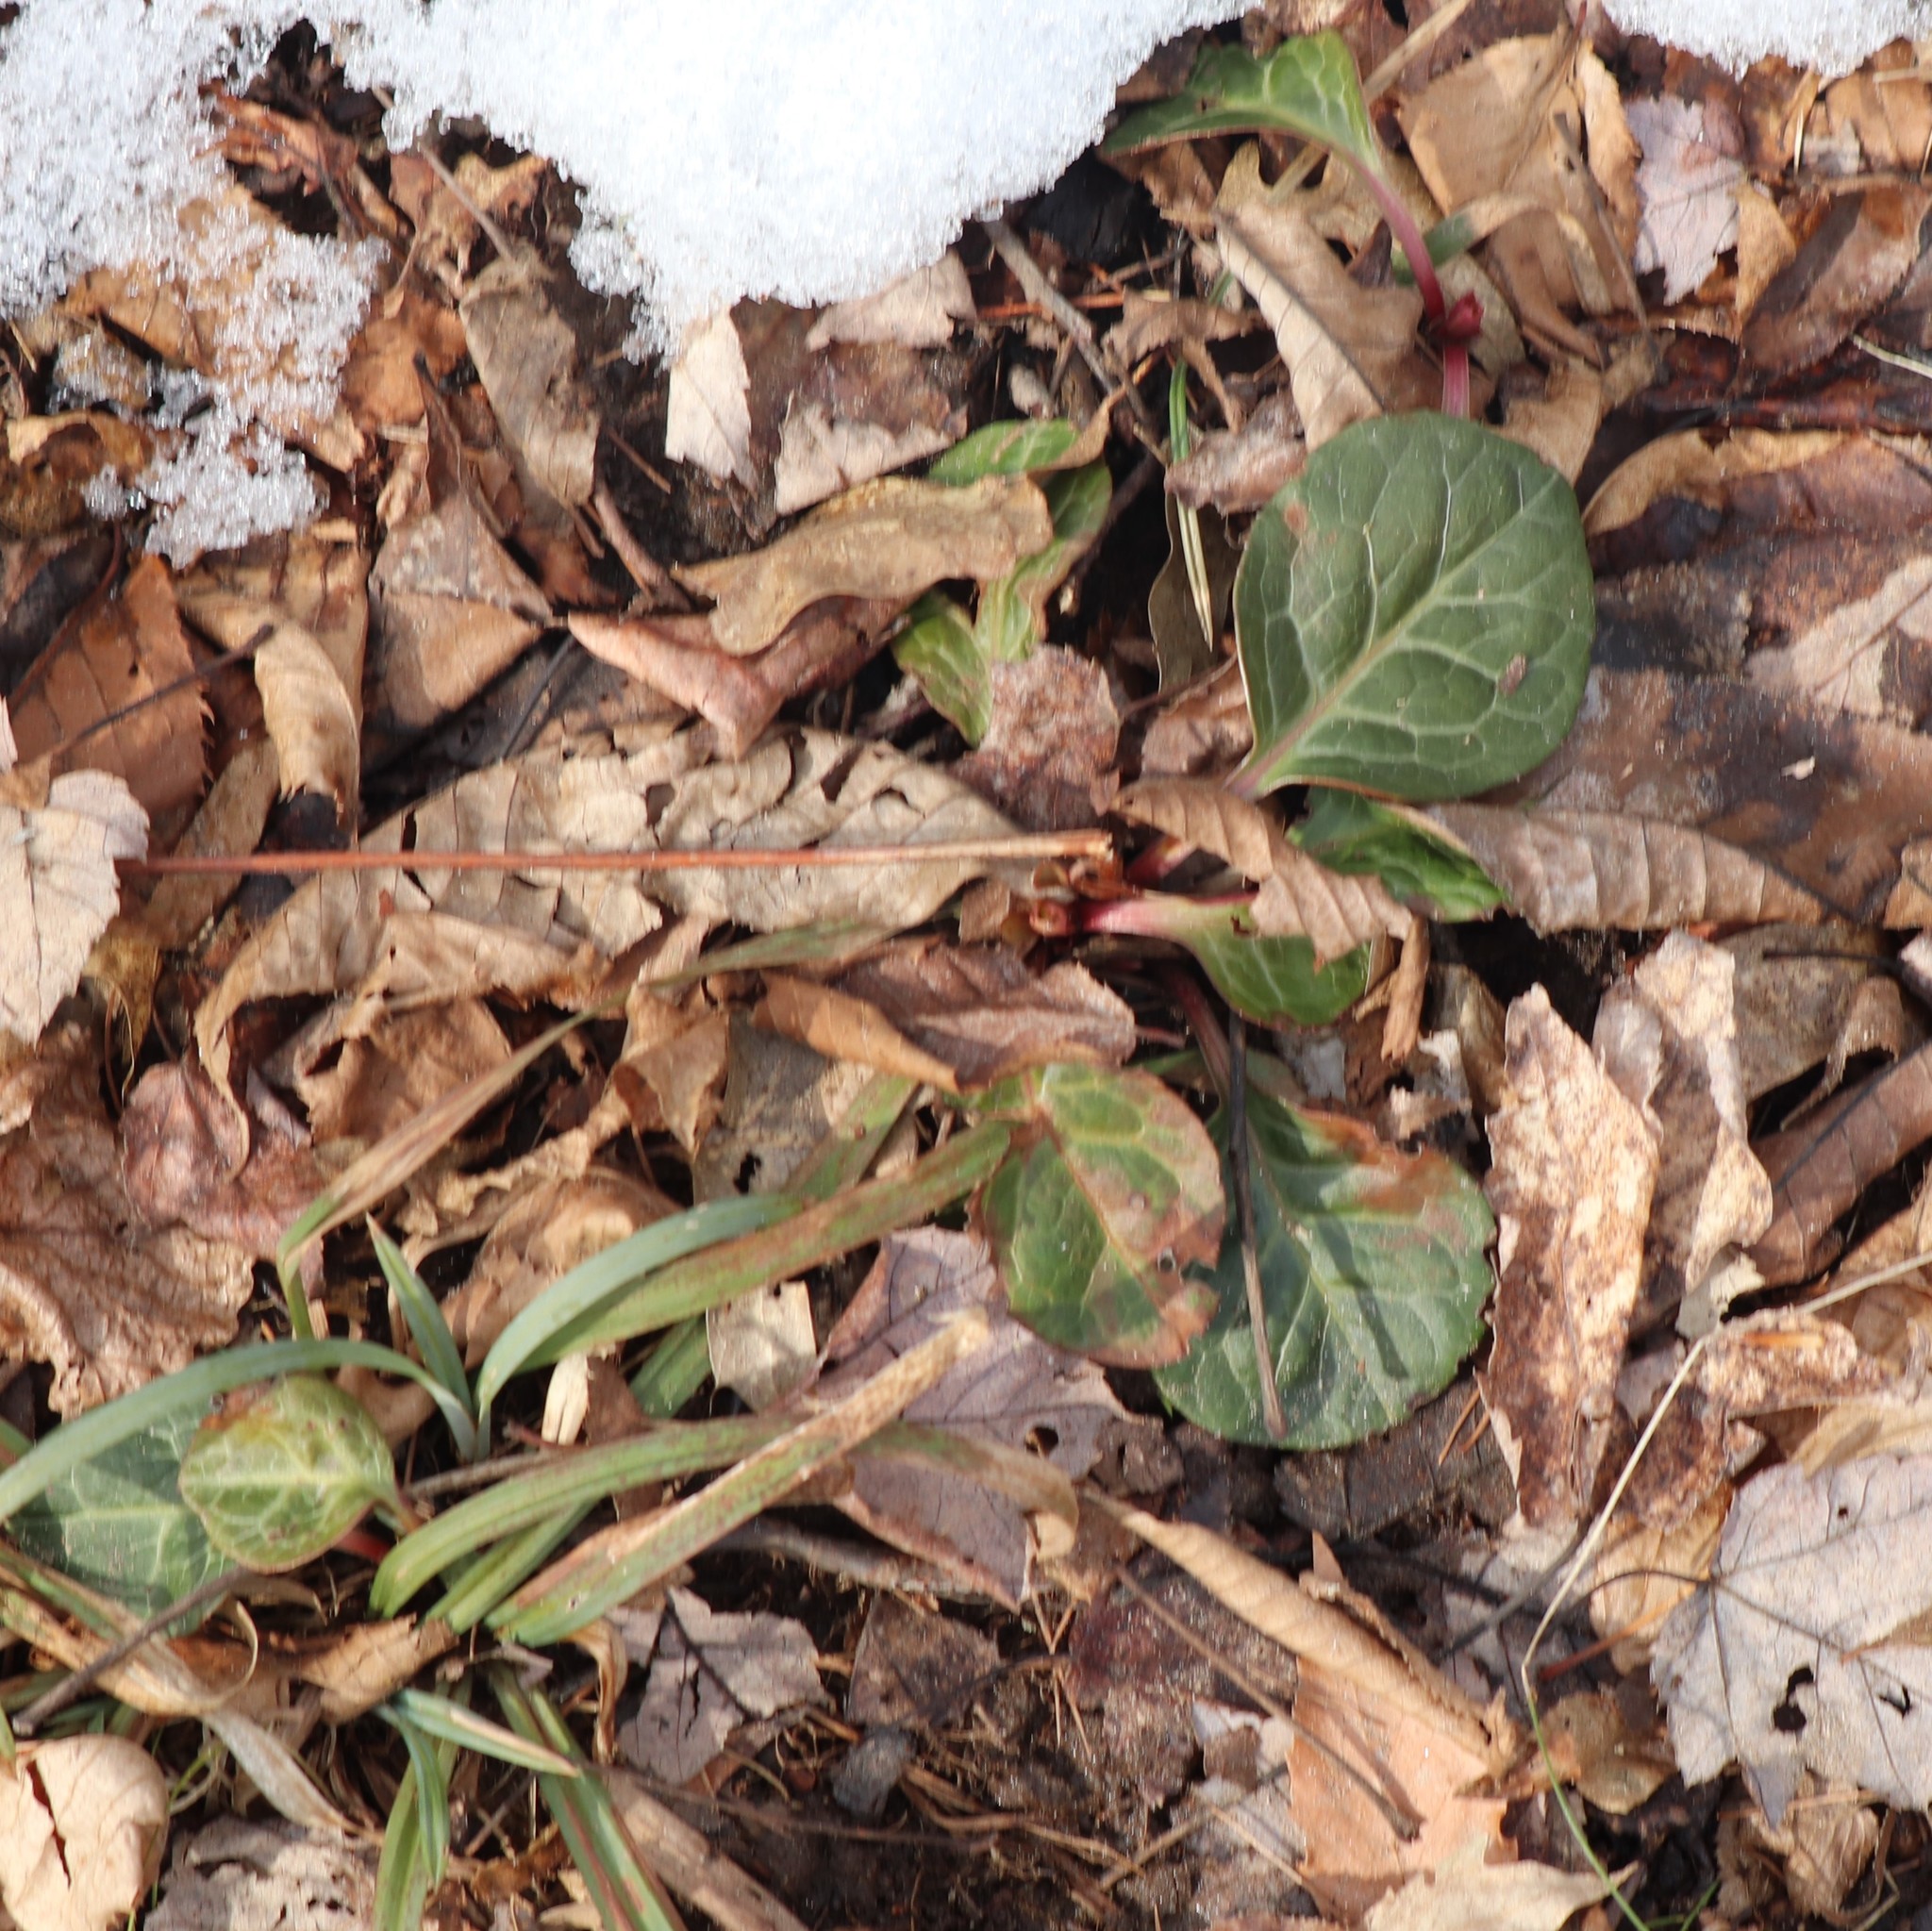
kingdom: Plantae
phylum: Tracheophyta
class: Magnoliopsida
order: Ericales
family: Ericaceae
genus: Pyrola
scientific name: Pyrola americana
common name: American wintergreen
